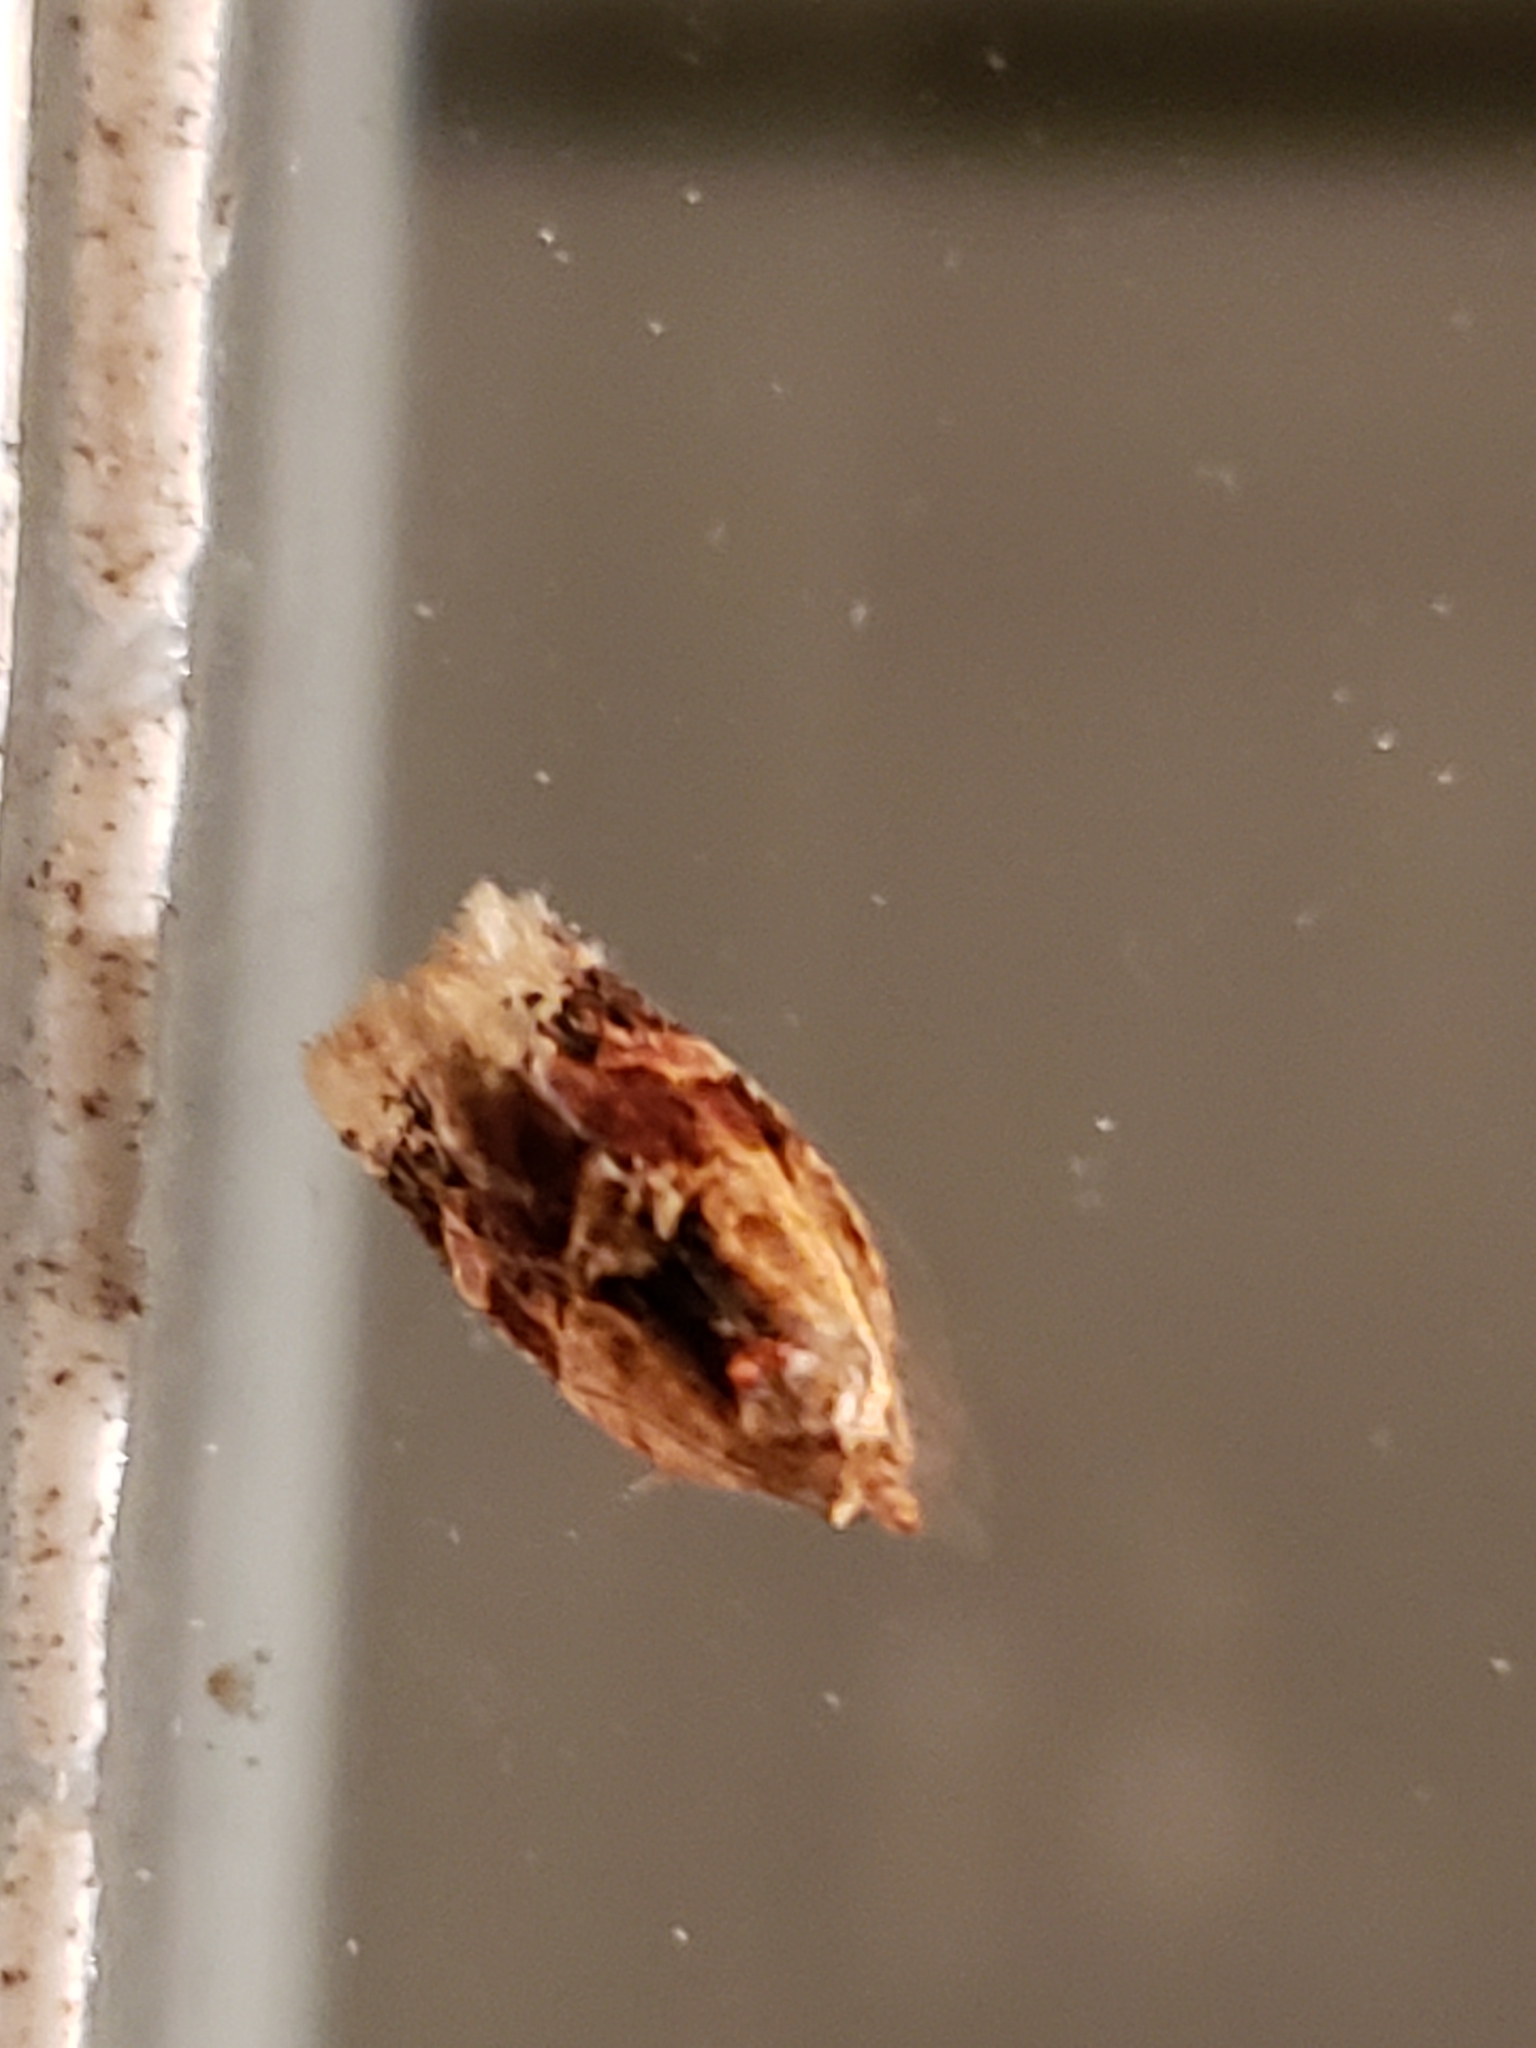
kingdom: Animalia
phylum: Arthropoda
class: Insecta
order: Lepidoptera
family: Tortricidae
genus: Argyrotaenia
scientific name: Argyrotaenia velutinana
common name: Red-banded leafroller moth
